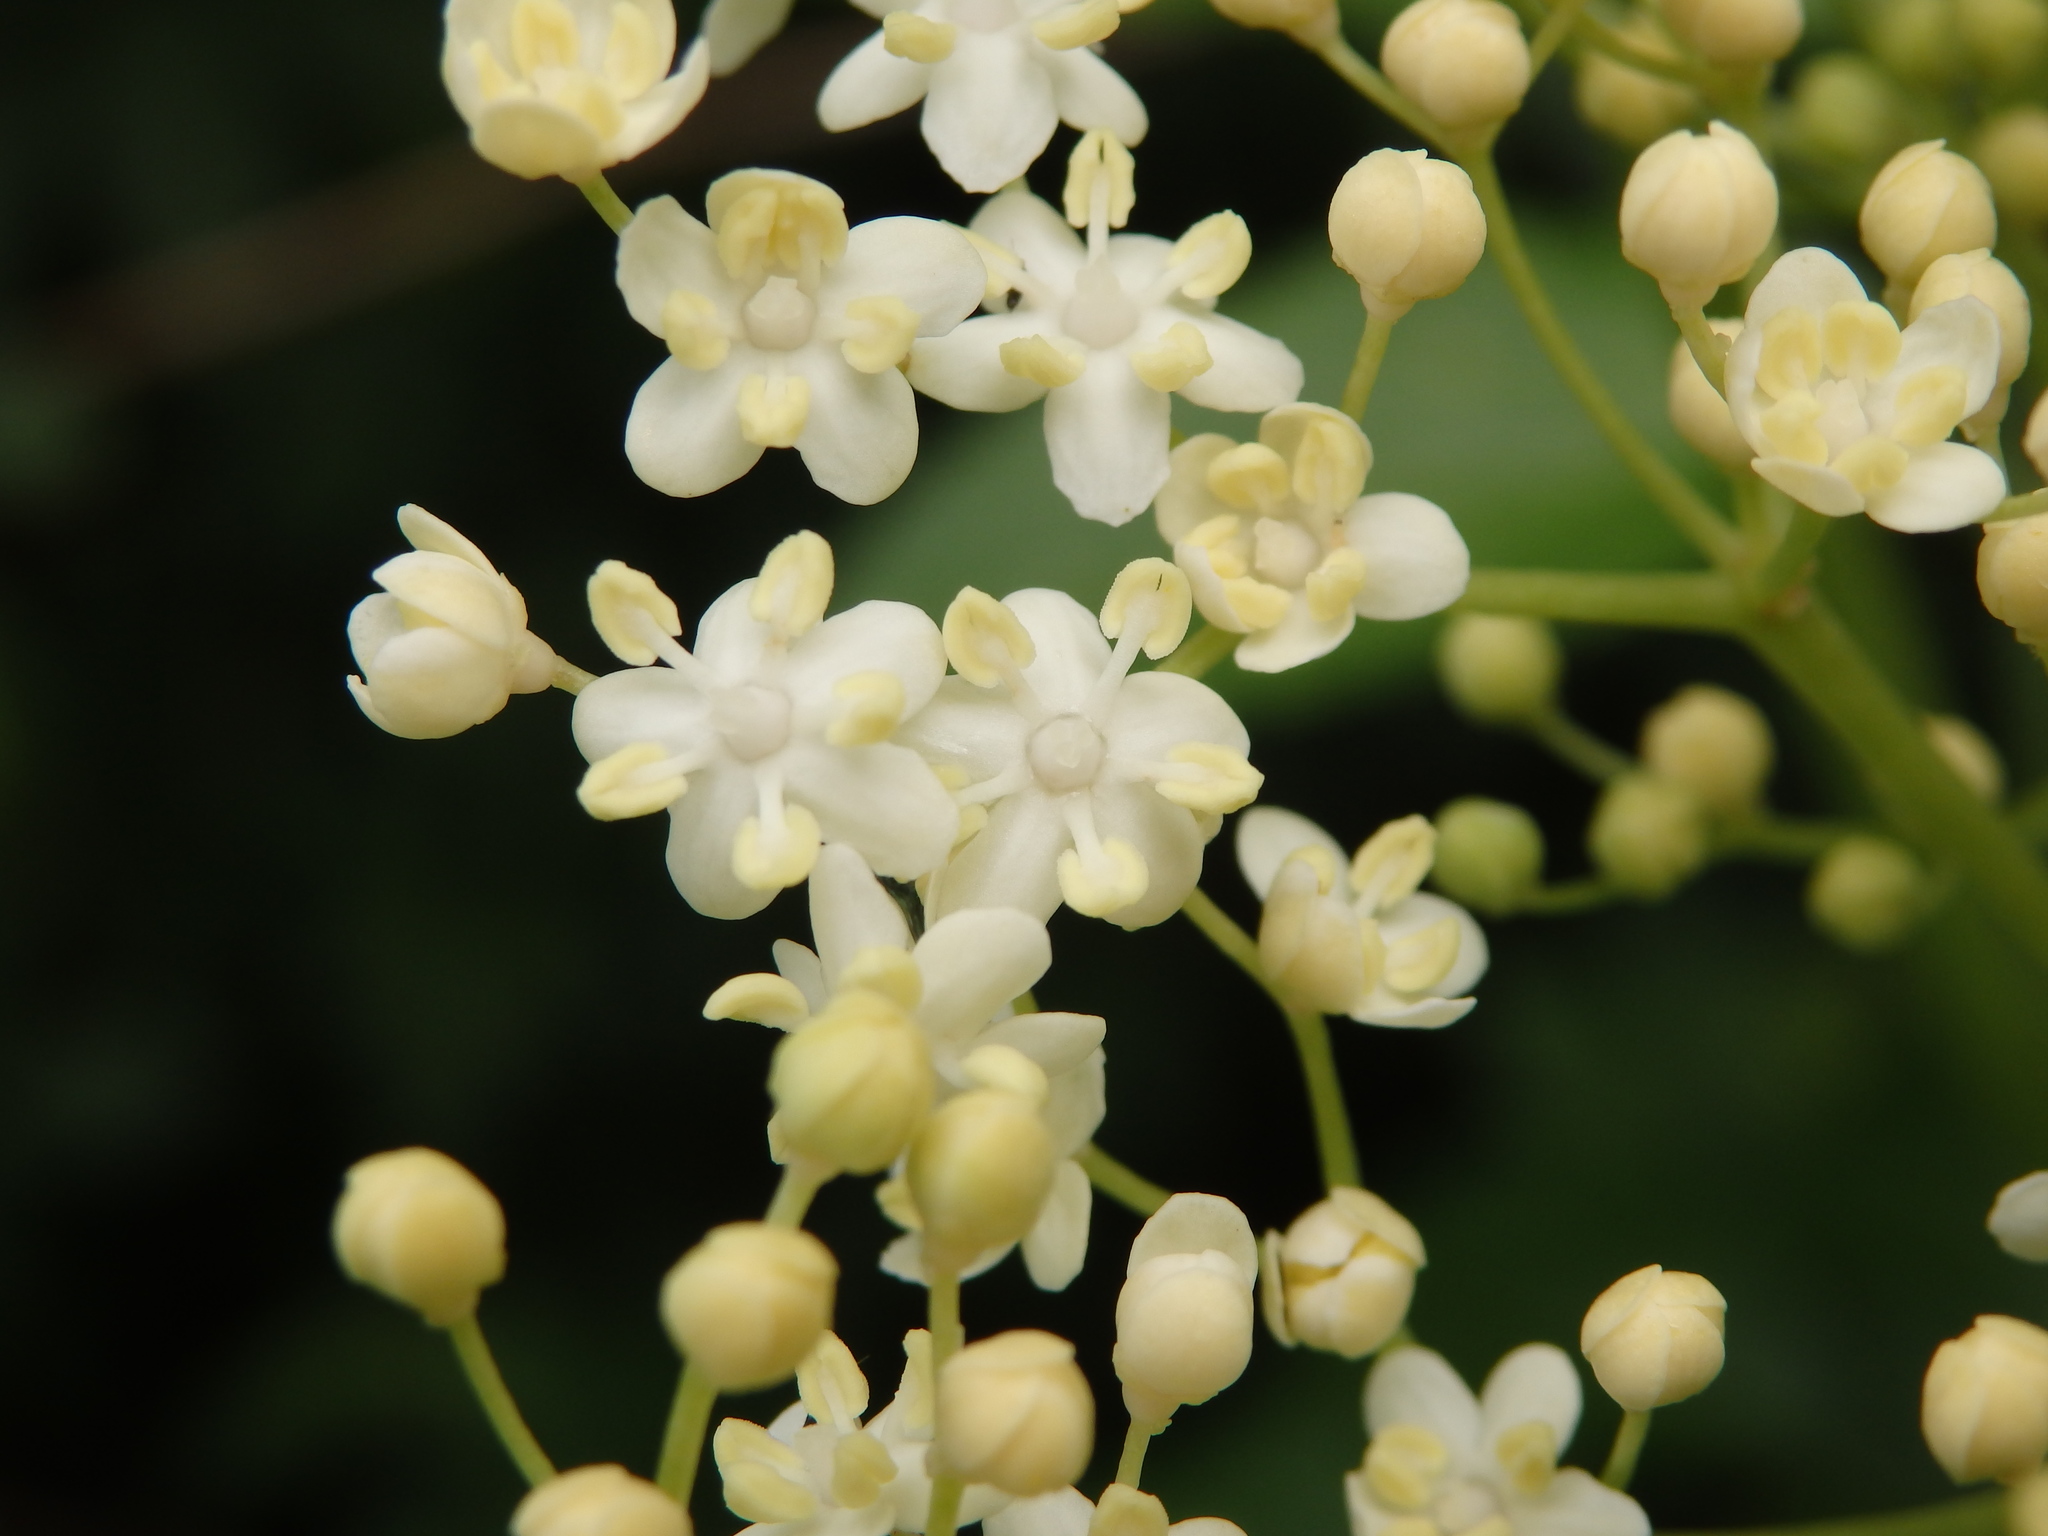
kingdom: Plantae
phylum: Tracheophyta
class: Magnoliopsida
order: Dipsacales
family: Viburnaceae
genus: Sambucus
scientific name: Sambucus nigra
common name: Elder
